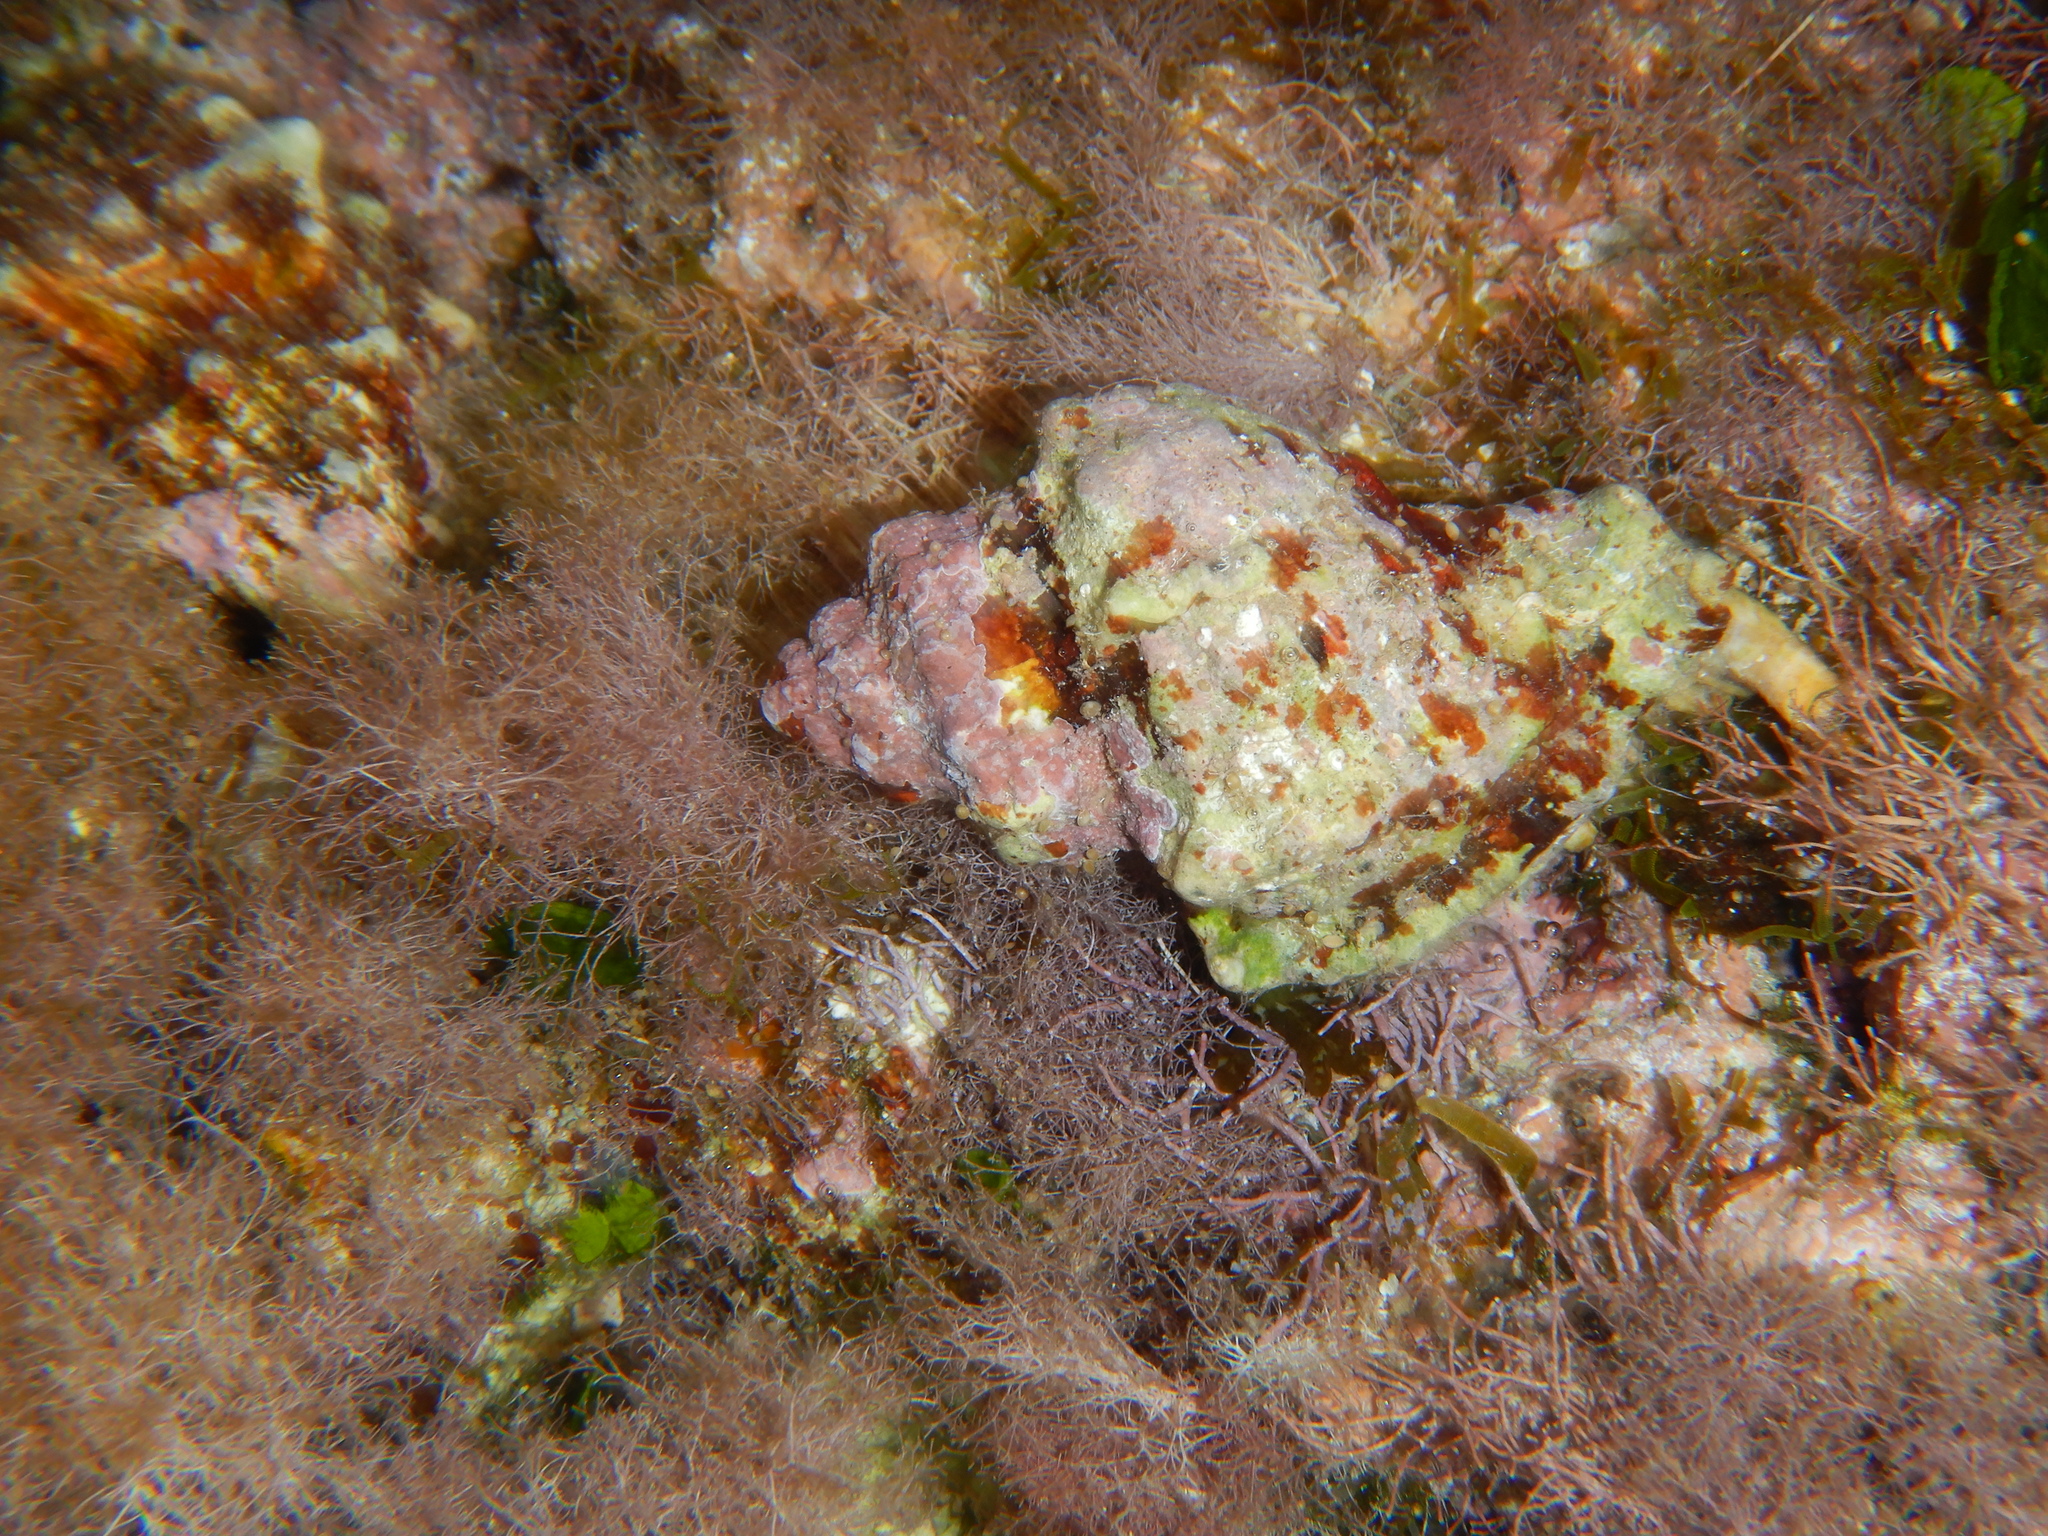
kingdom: Animalia
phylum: Mollusca
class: Gastropoda
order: Neogastropoda
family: Muricidae
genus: Hexaplex
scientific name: Hexaplex trunculus
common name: Banded dye-murex
